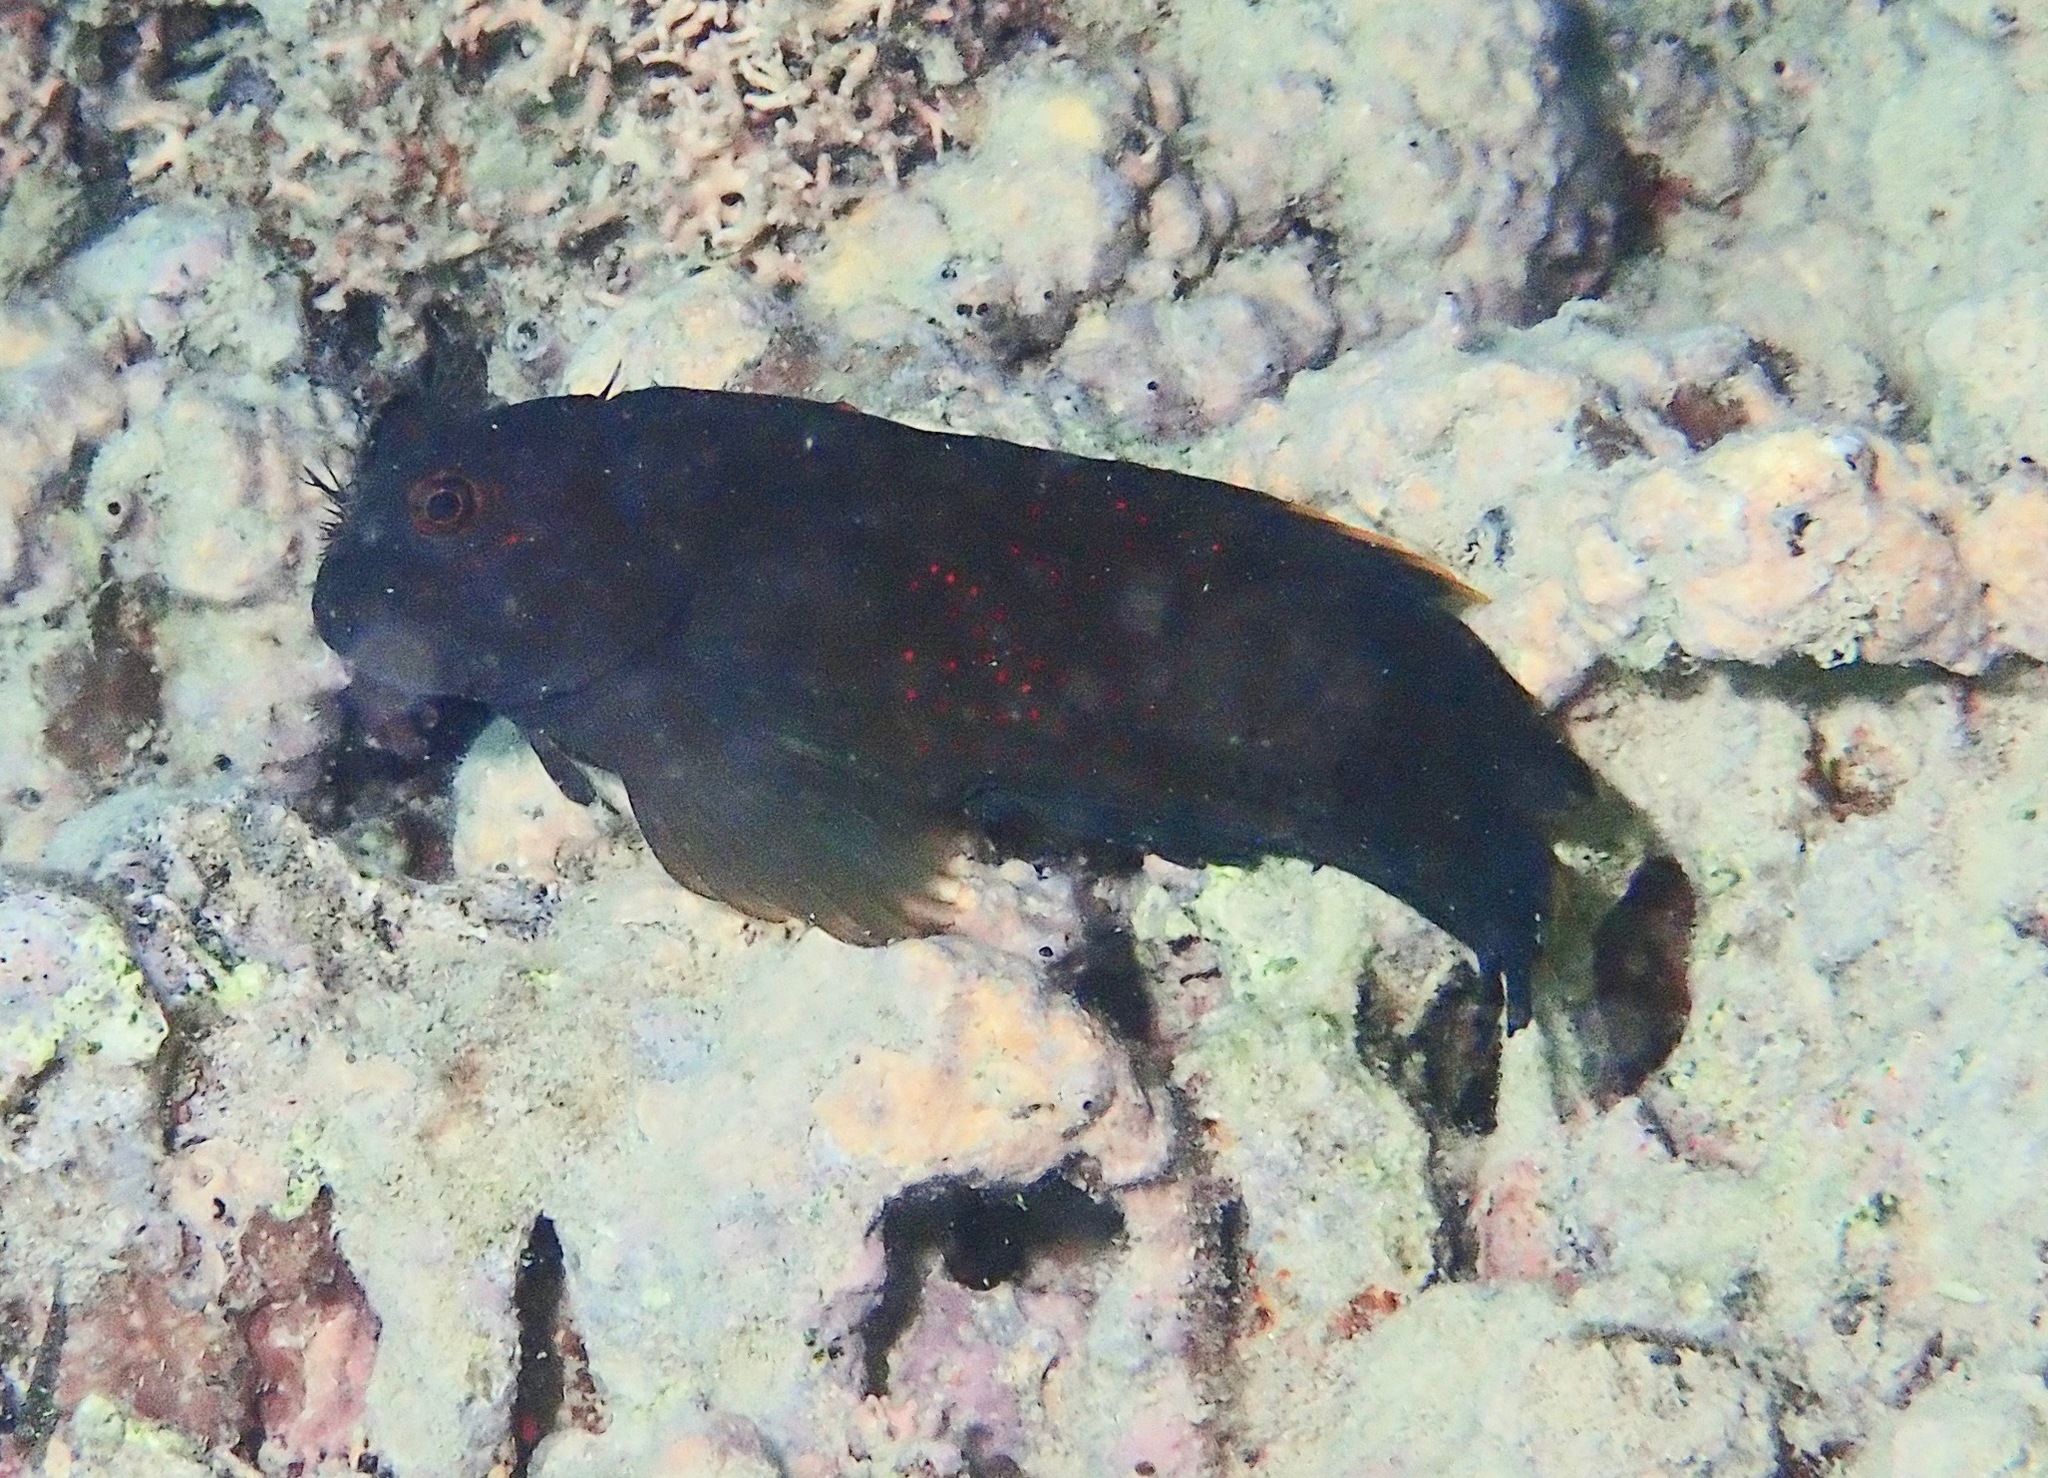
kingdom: Animalia
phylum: Chordata
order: Perciformes
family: Blenniidae
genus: Cirripectes
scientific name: Cirripectes chelomatus
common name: Lady musgrave blenny
